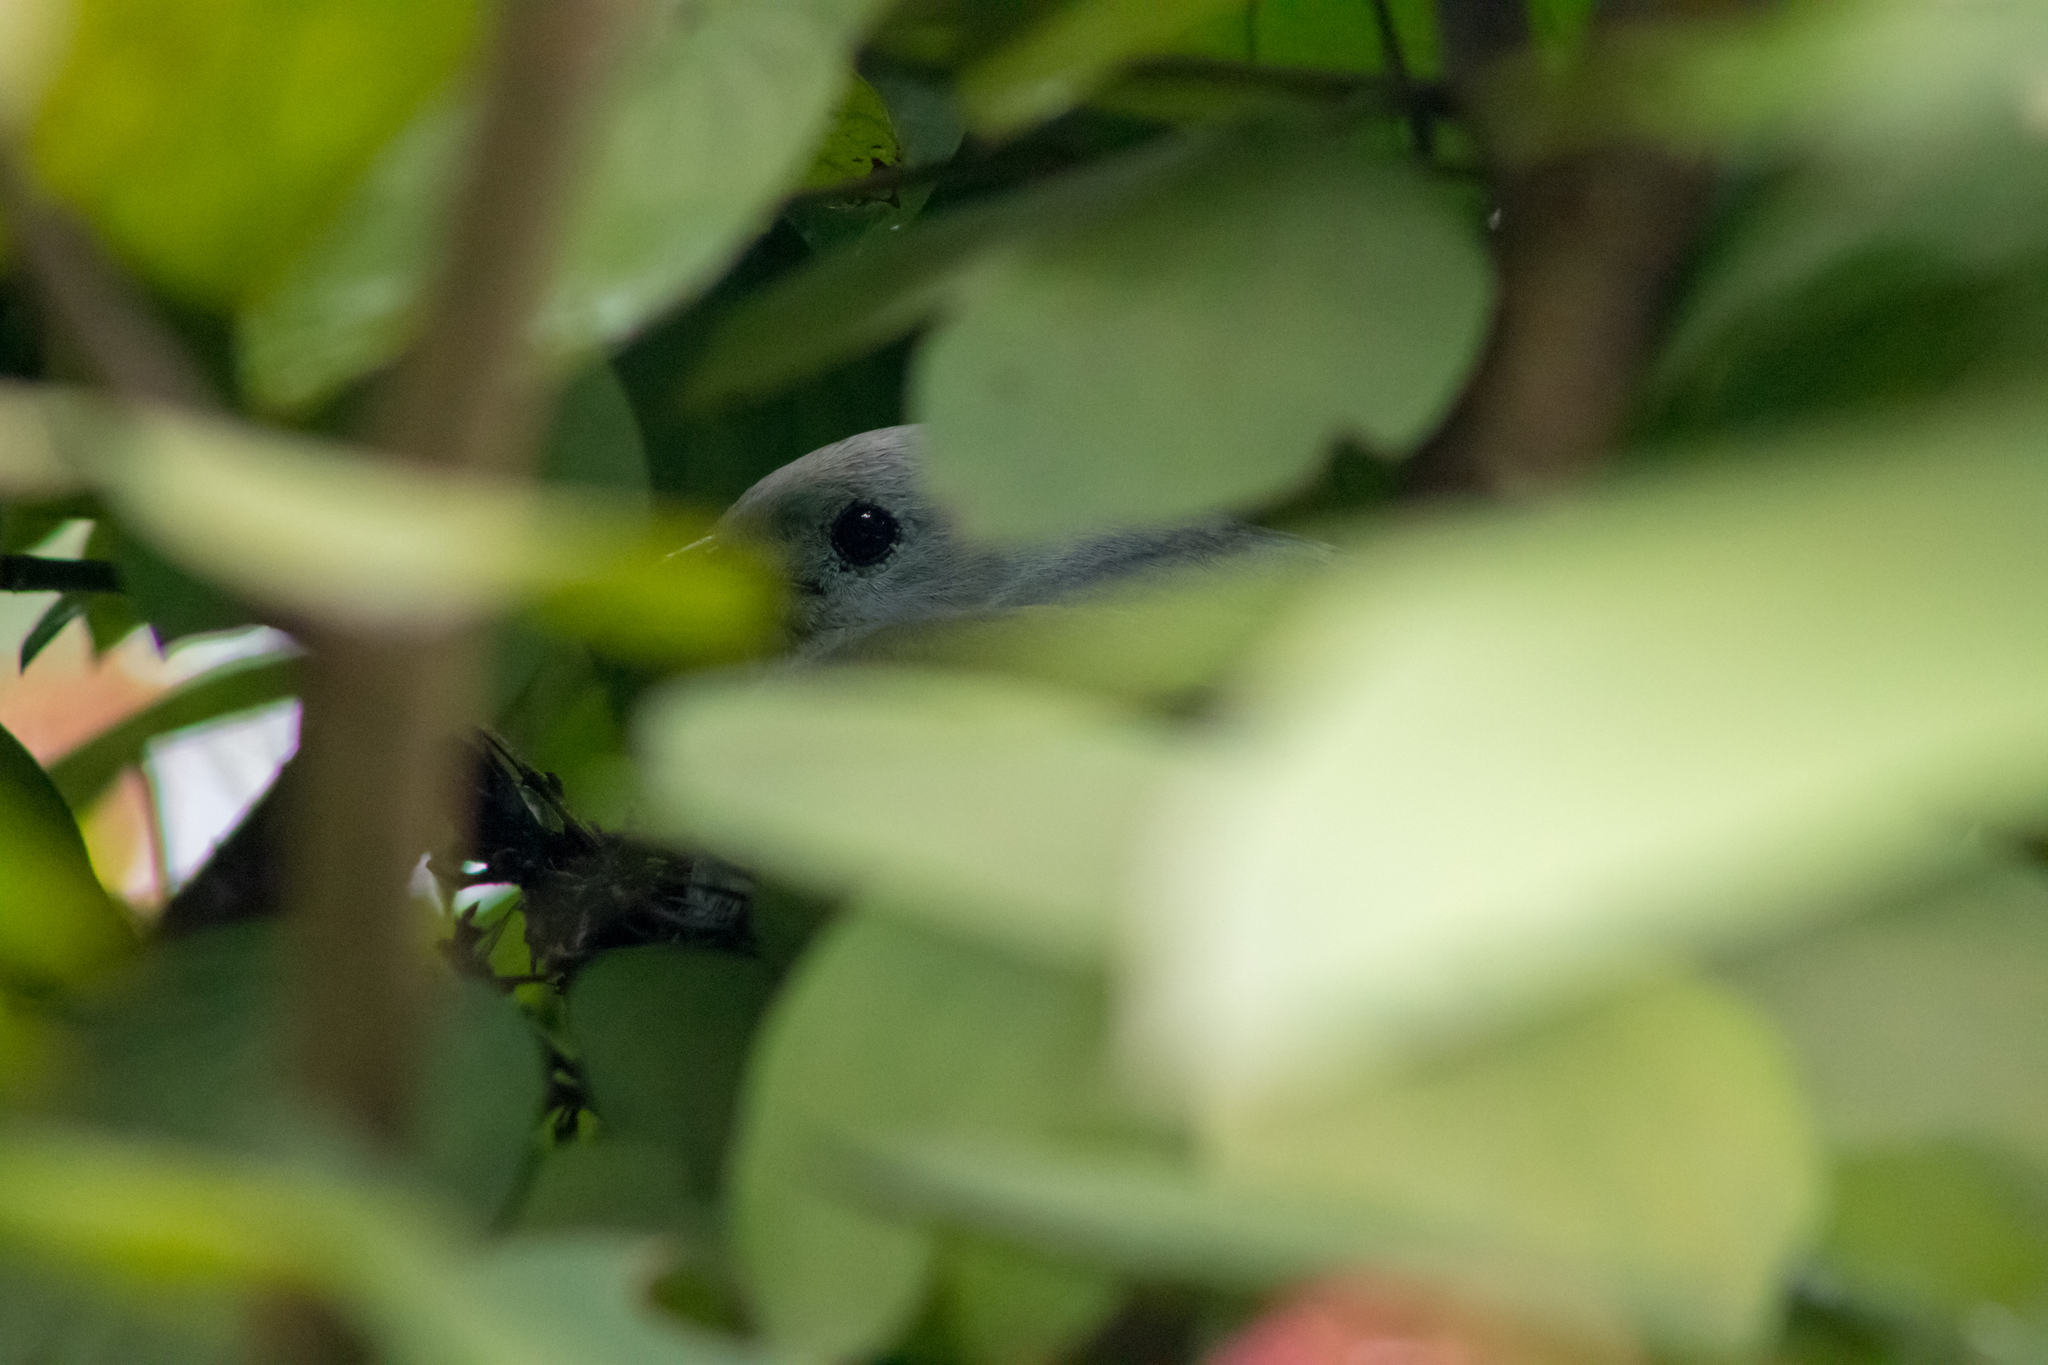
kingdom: Animalia
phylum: Chordata
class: Aves
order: Passeriformes
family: Thraupidae
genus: Thraupis
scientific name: Thraupis episcopus
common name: Blue-grey tanager
